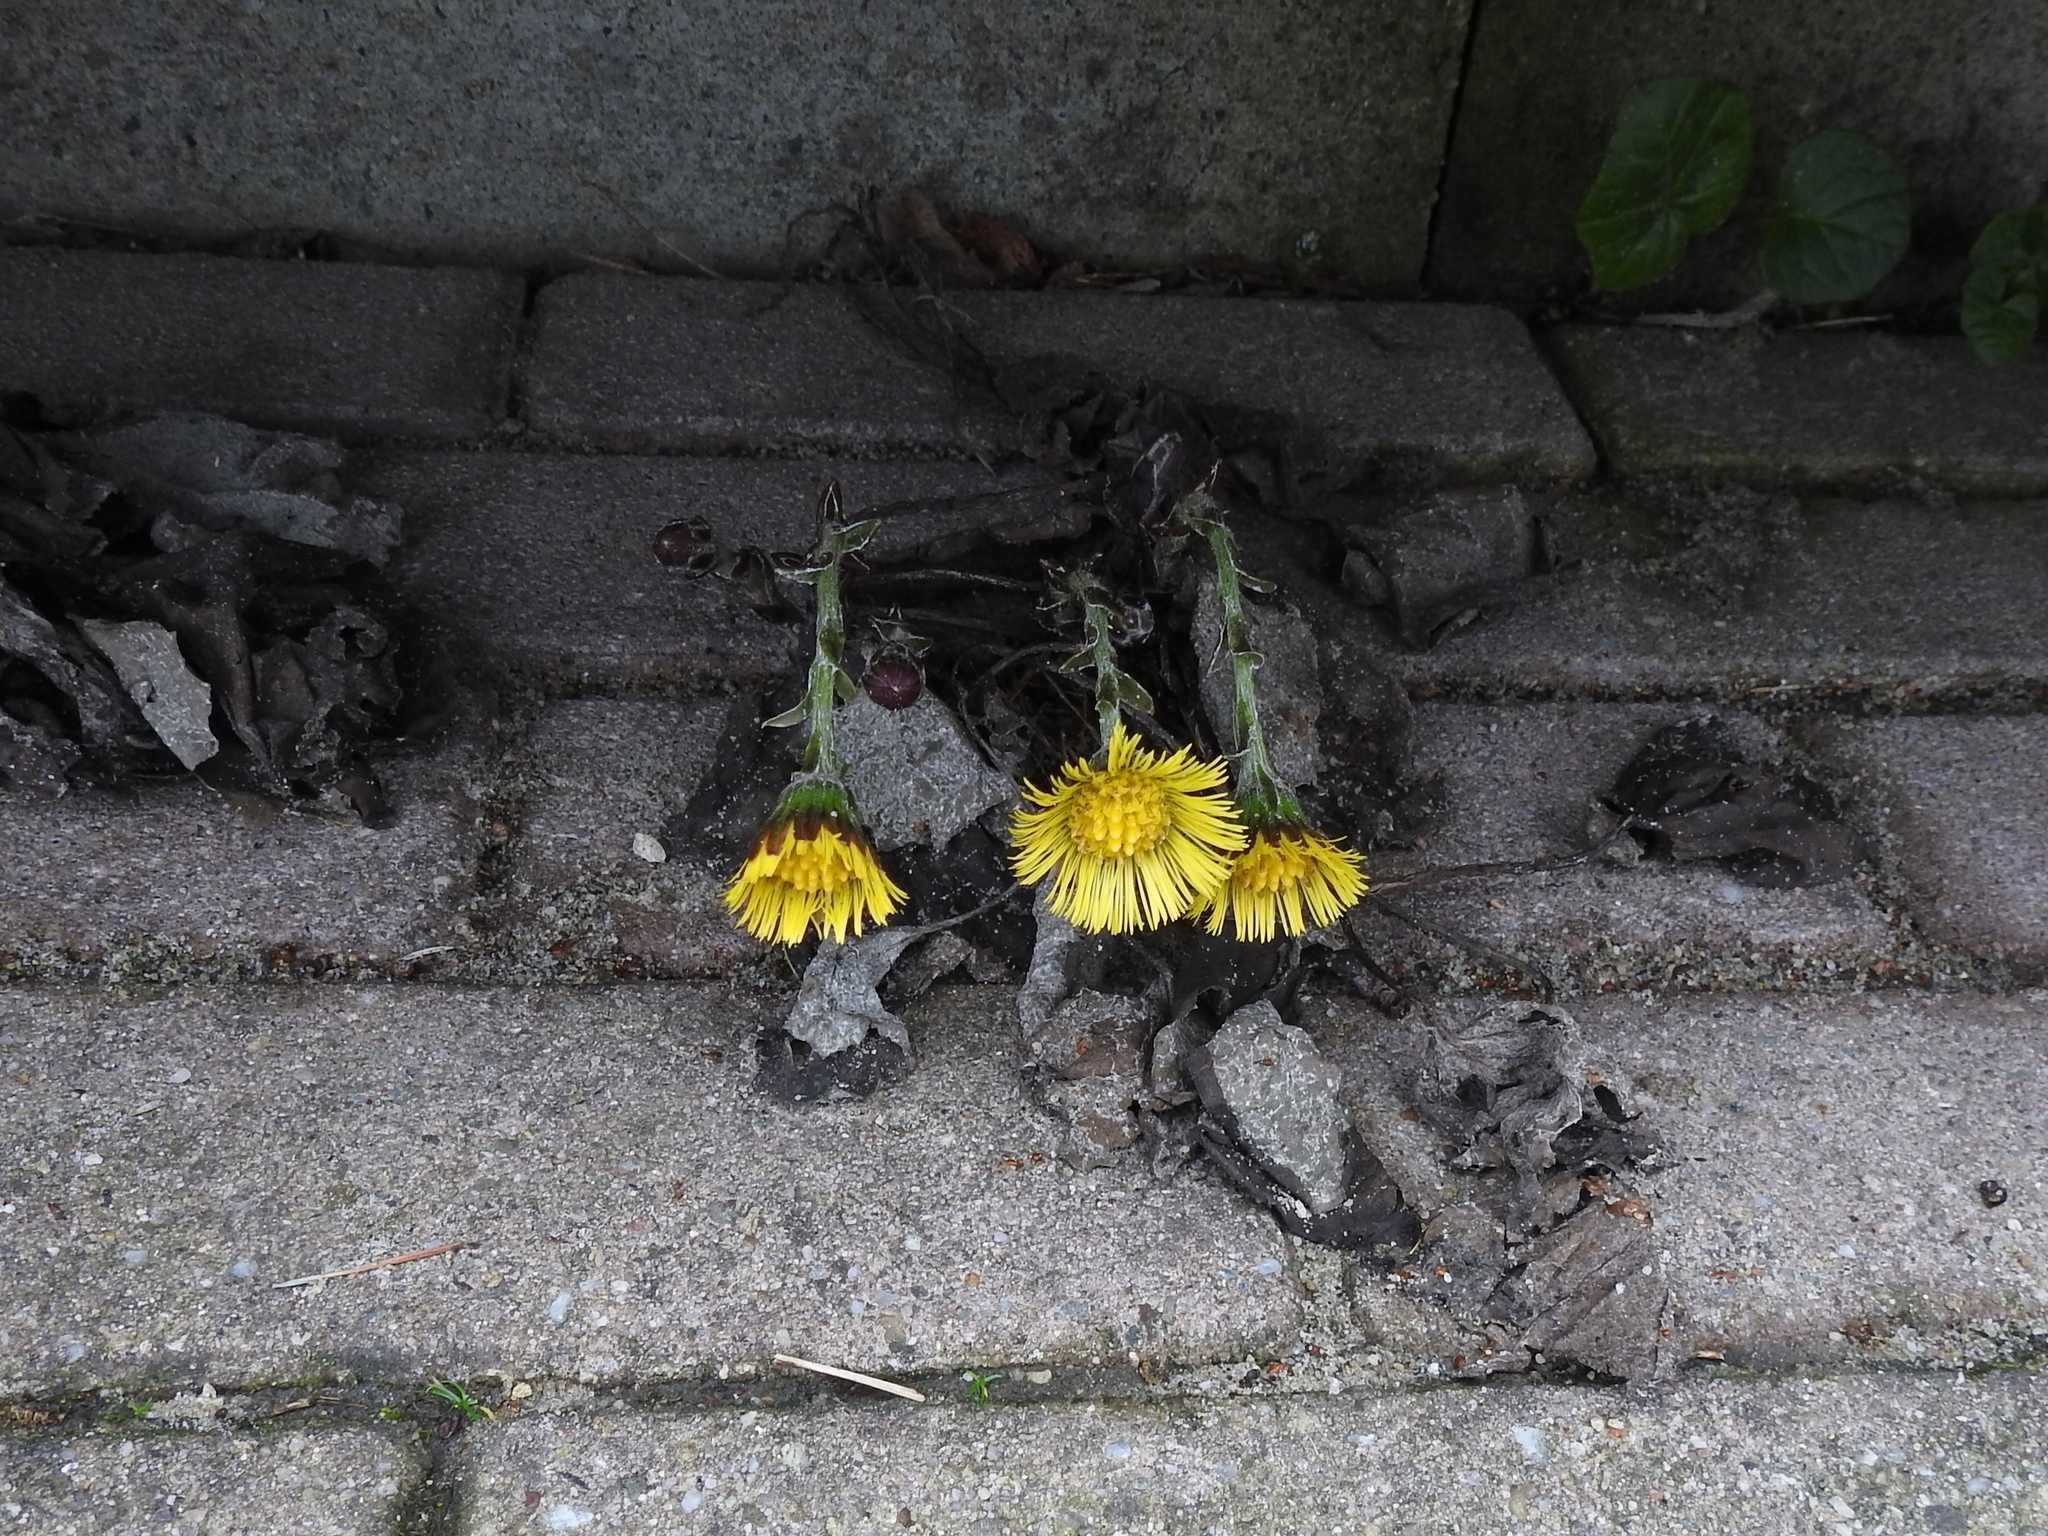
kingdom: Plantae
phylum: Tracheophyta
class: Magnoliopsida
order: Asterales
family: Asteraceae
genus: Tussilago
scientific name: Tussilago farfara
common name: Coltsfoot
